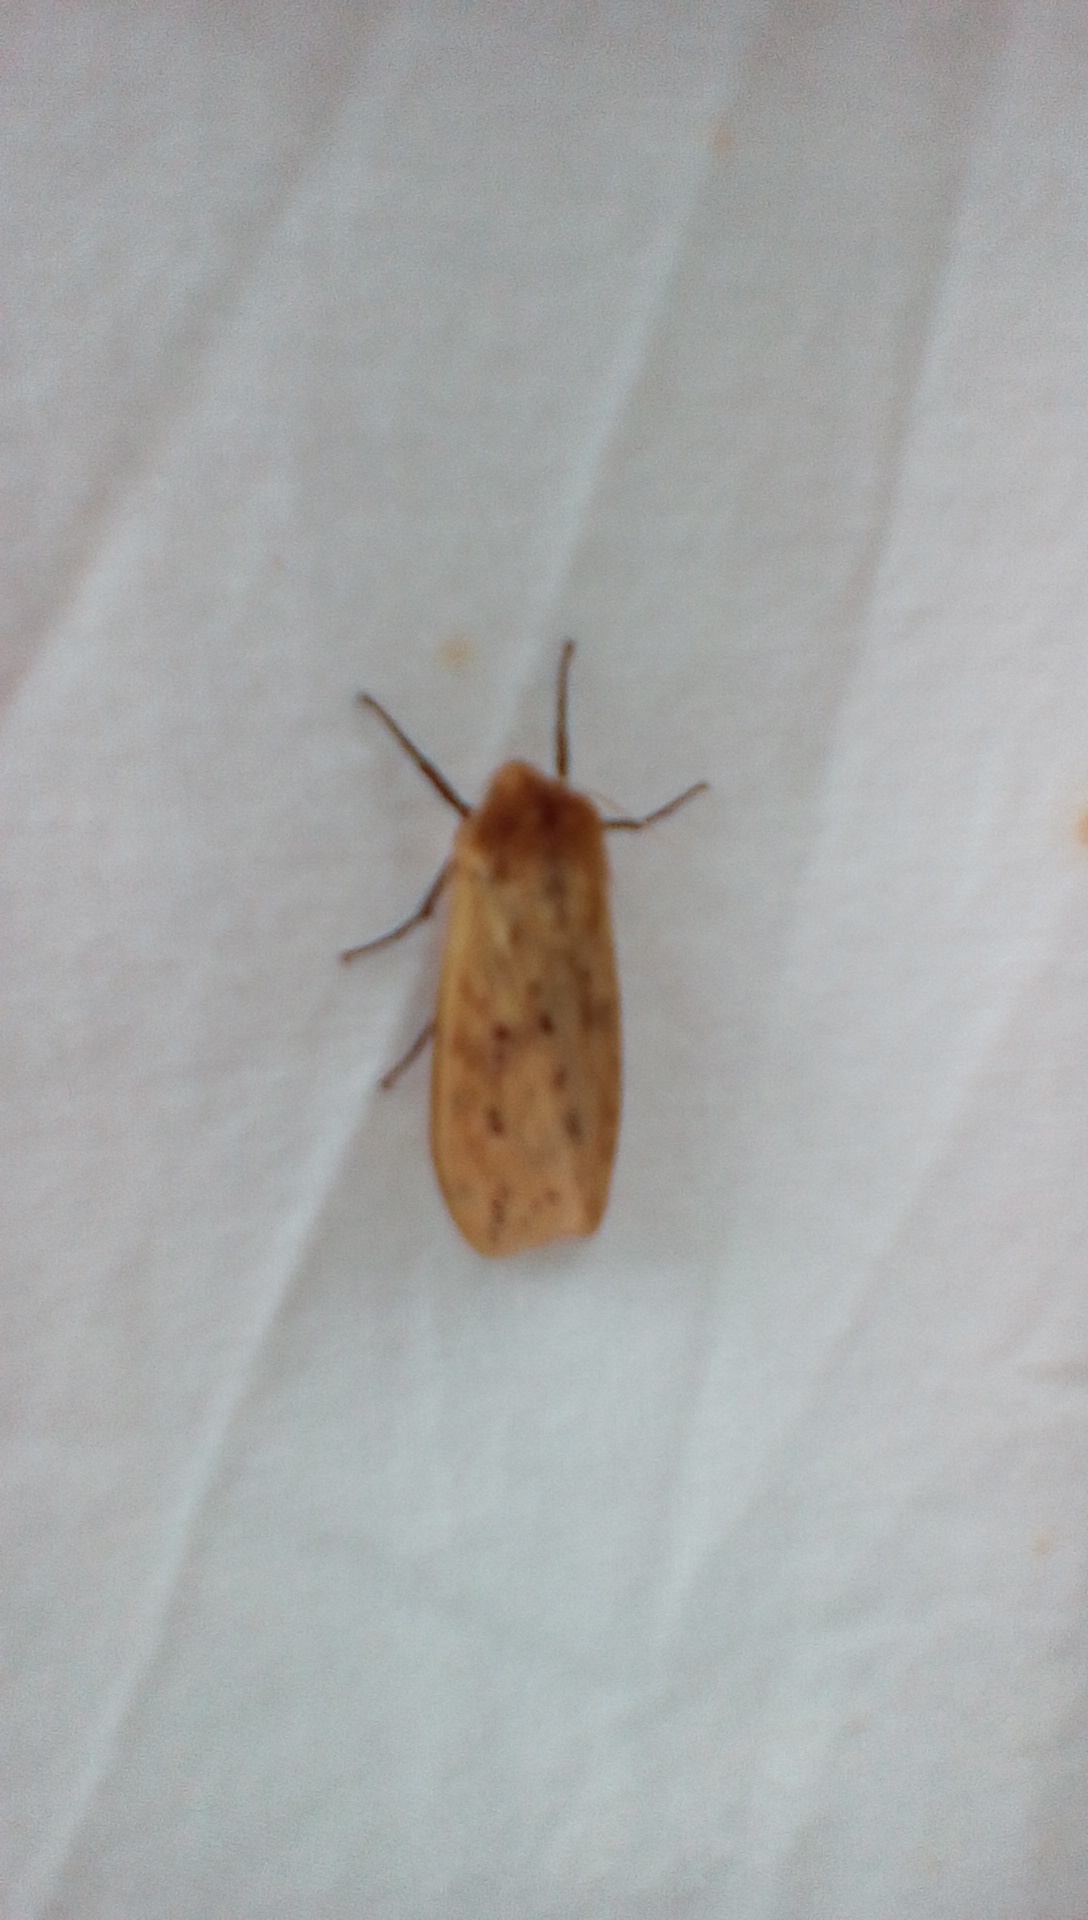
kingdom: Animalia
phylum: Arthropoda
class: Insecta
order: Lepidoptera
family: Erebidae
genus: Pyrrharctia
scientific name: Pyrrharctia isabella
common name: Isabella tiger moth
